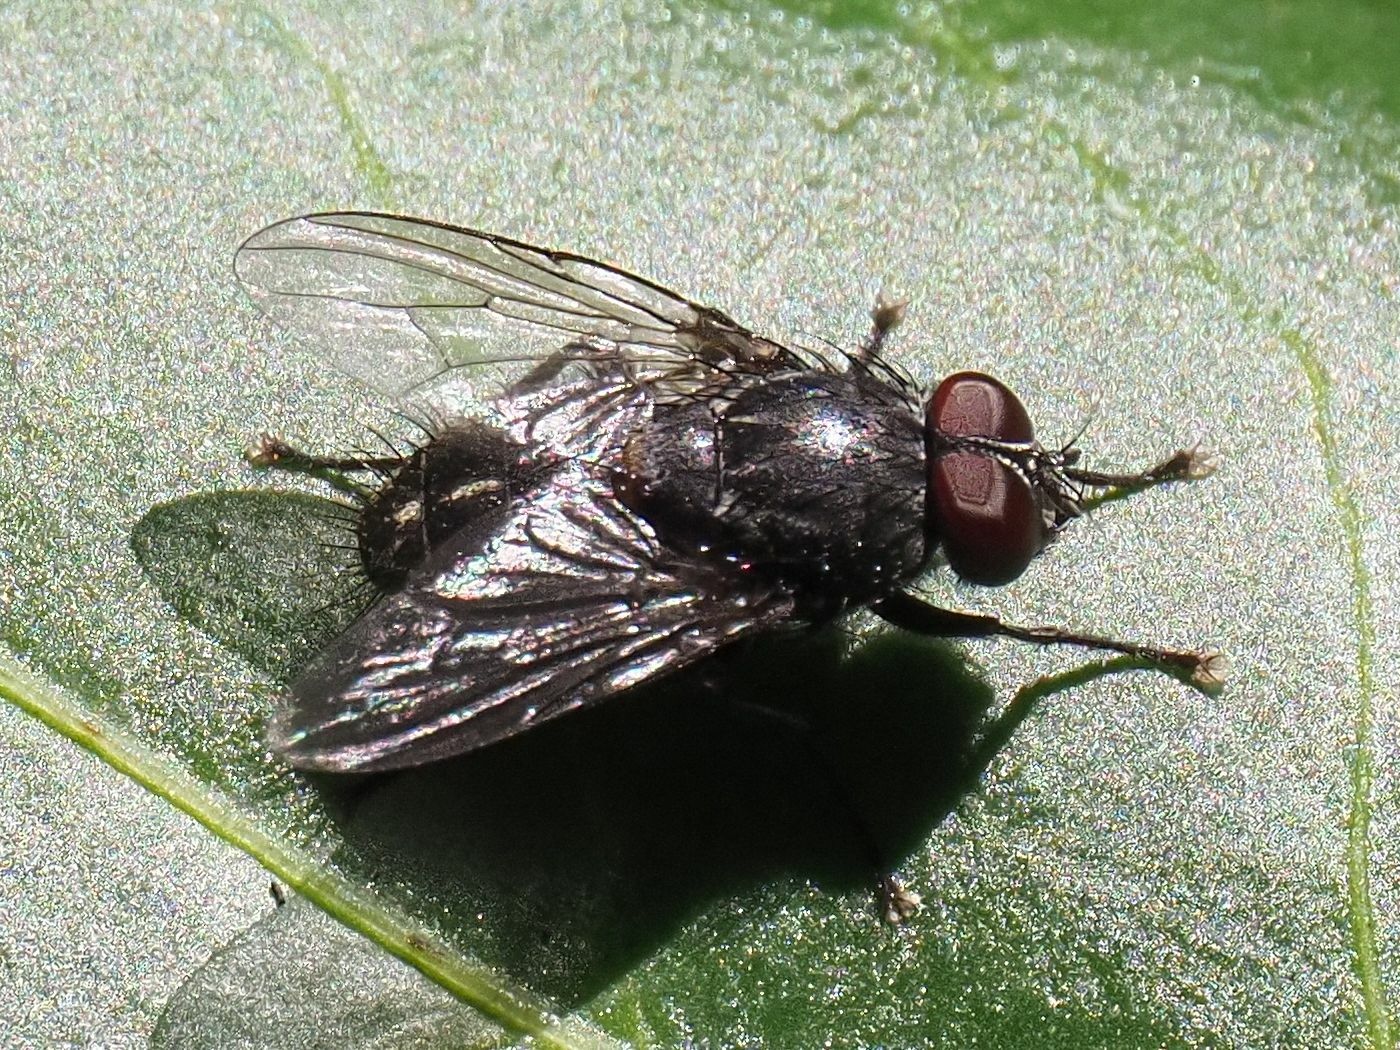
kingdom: Animalia
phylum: Arthropoda
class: Insecta
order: Diptera
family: Muscidae
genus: Muscina
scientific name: Muscina levida
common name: House fly
